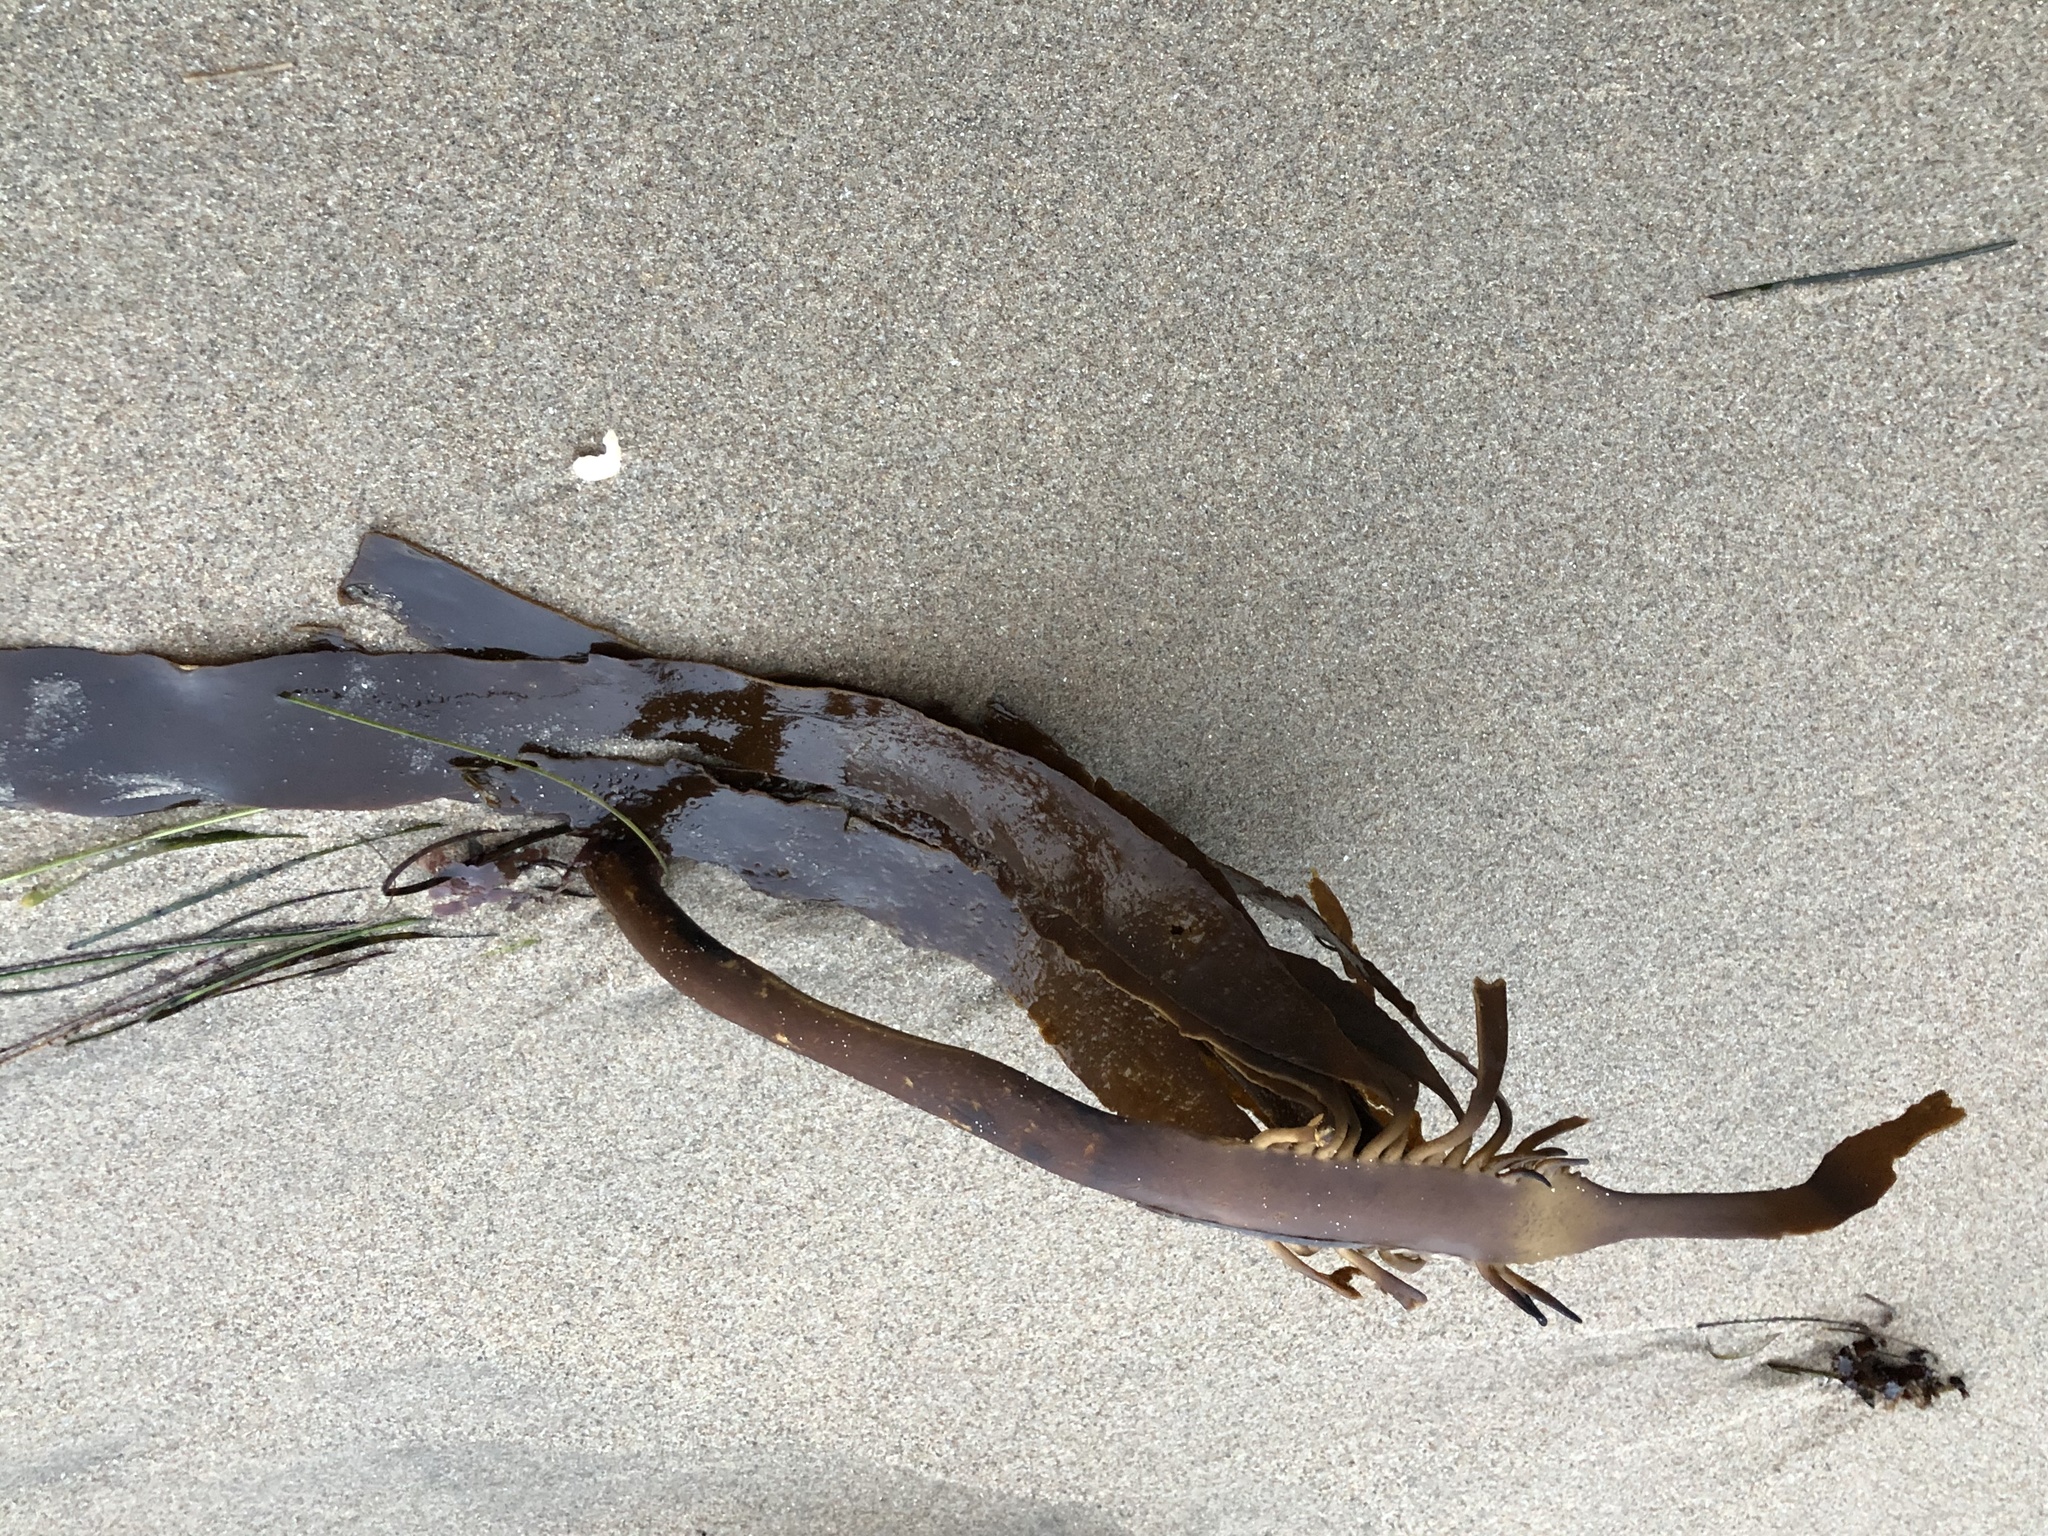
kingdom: Chromista
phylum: Ochrophyta
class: Phaeophyceae
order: Laminariales
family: Alariaceae
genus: Pterygophora
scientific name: Pterygophora californica
